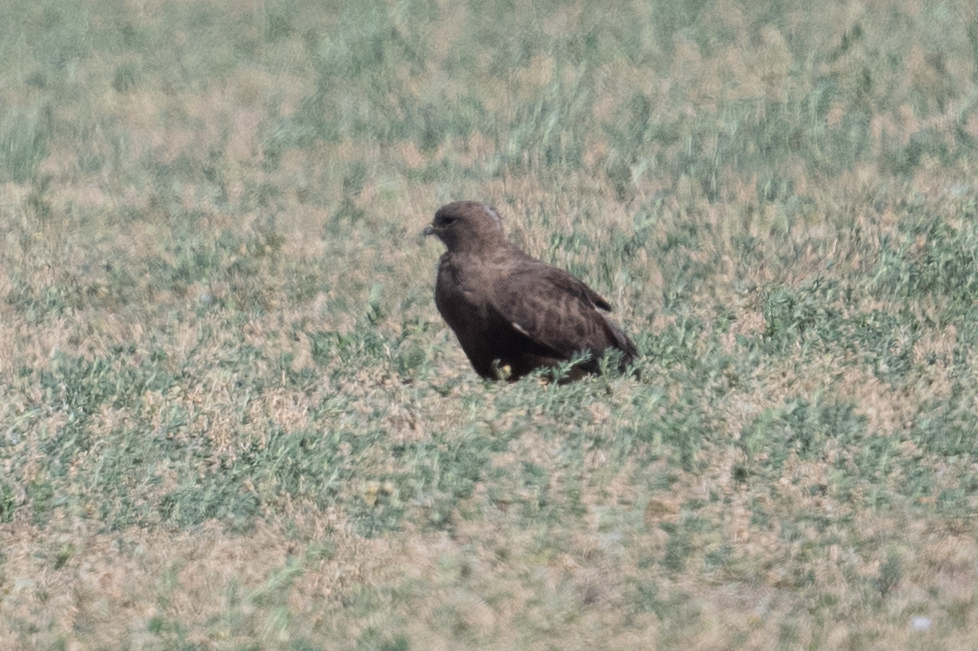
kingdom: Animalia
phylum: Chordata
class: Aves
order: Accipitriformes
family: Accipitridae
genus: Buteo
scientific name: Buteo swainsoni
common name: Swainson's hawk
